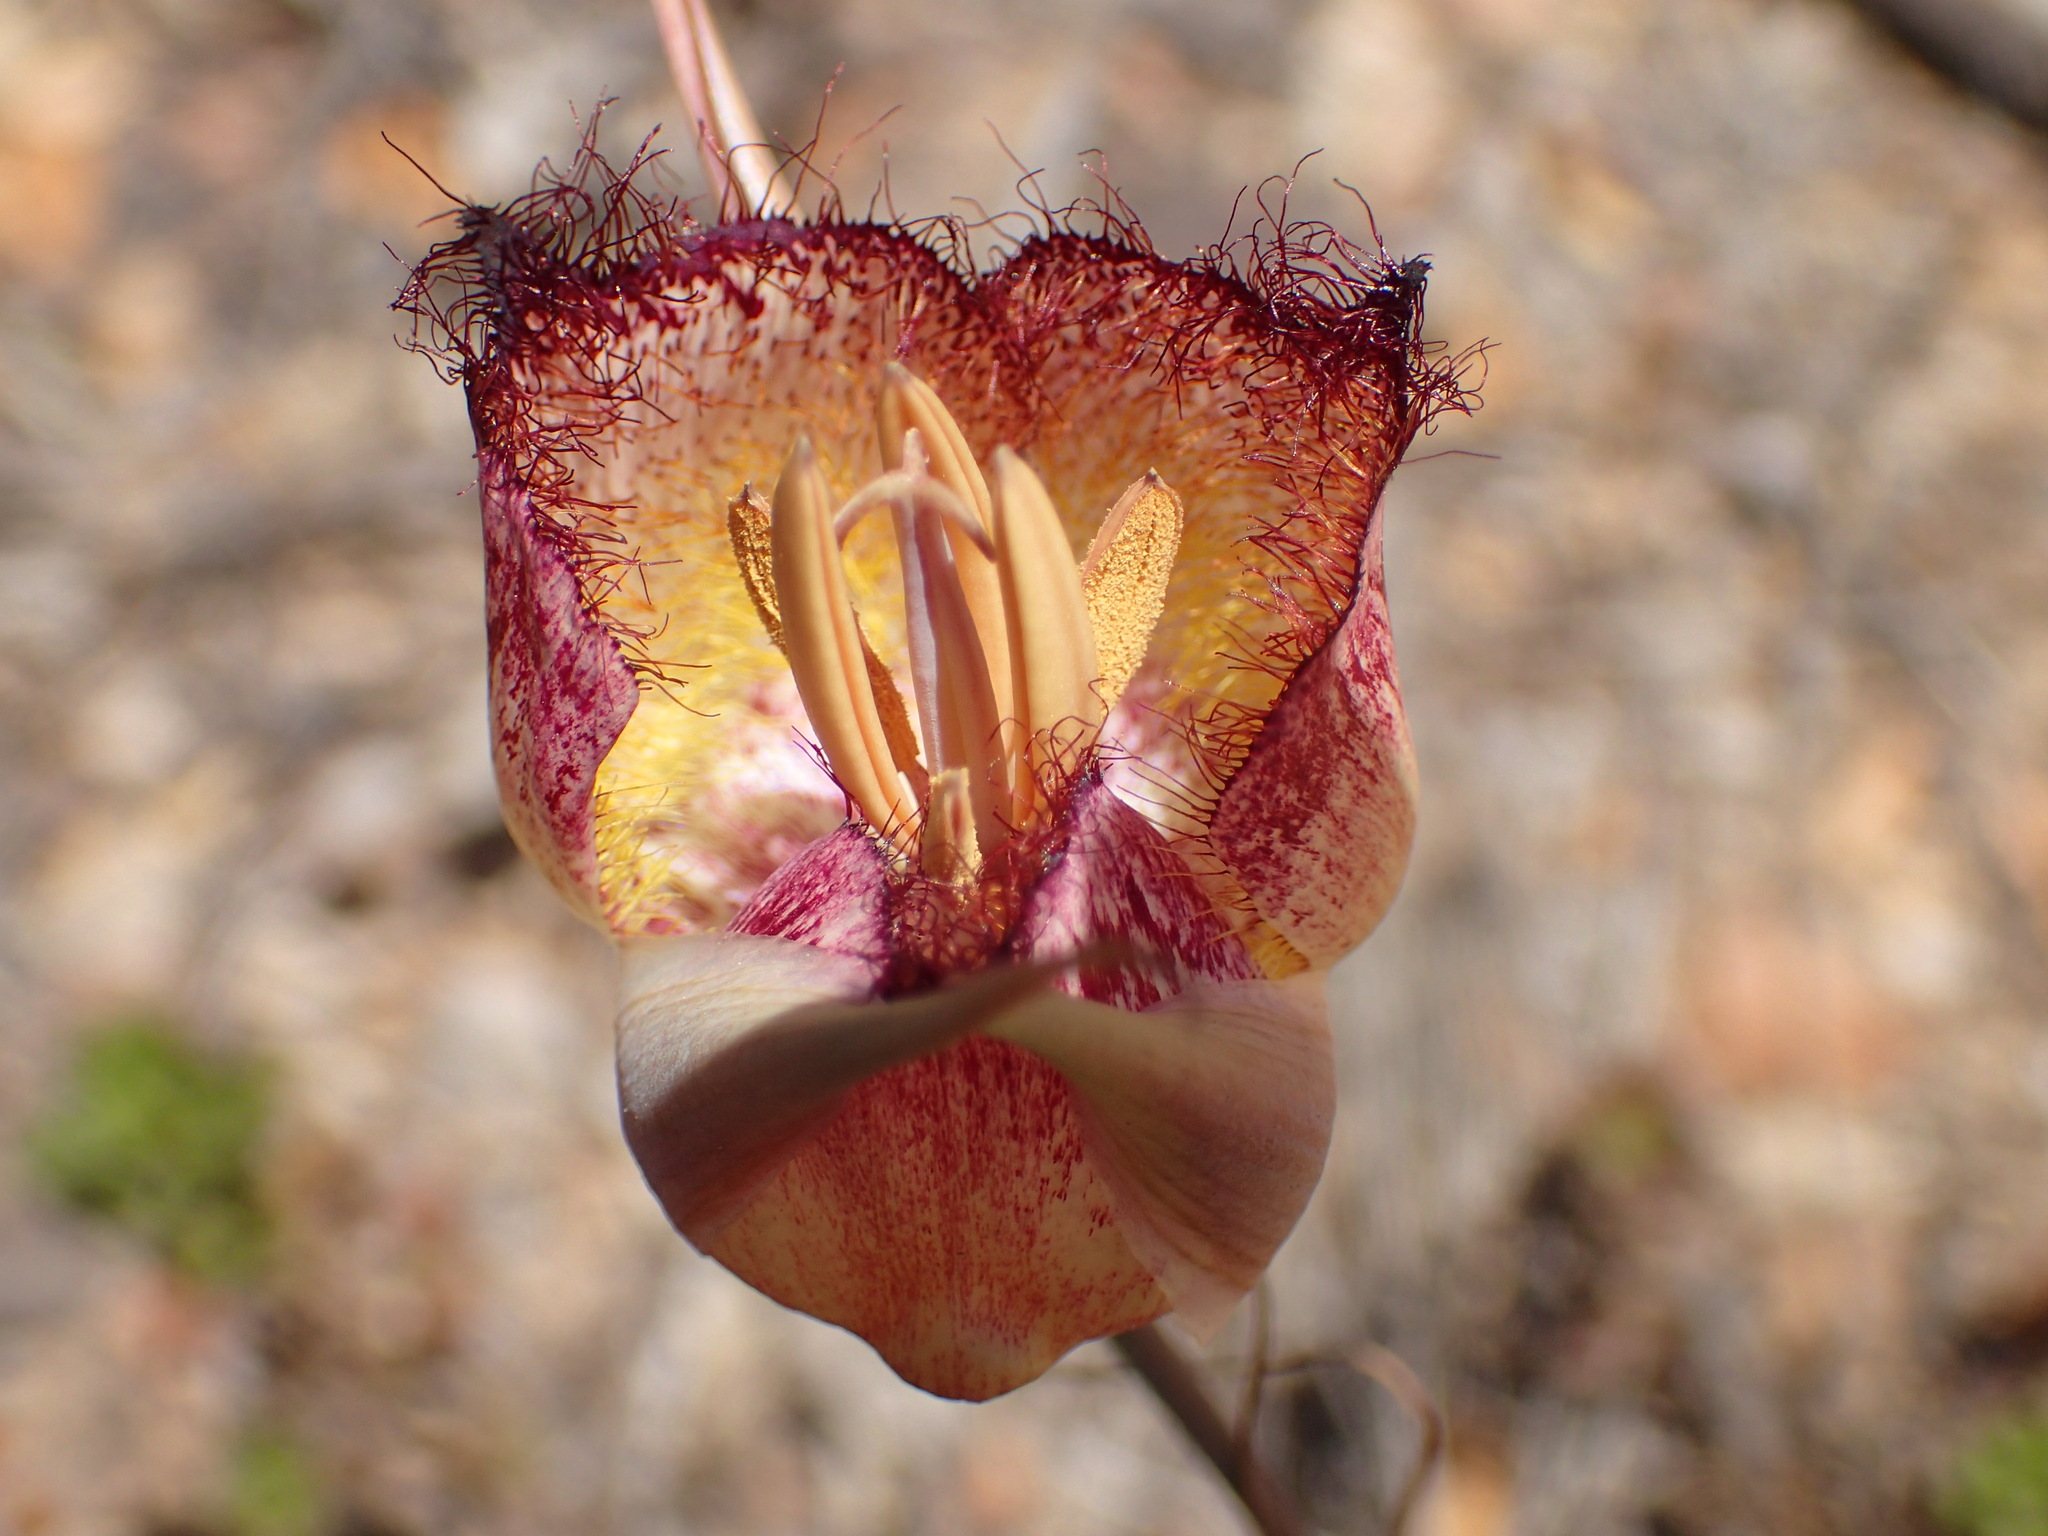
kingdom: Plantae
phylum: Tracheophyta
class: Liliopsida
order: Liliales
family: Liliaceae
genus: Calochortus
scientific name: Calochortus fimbriatus
